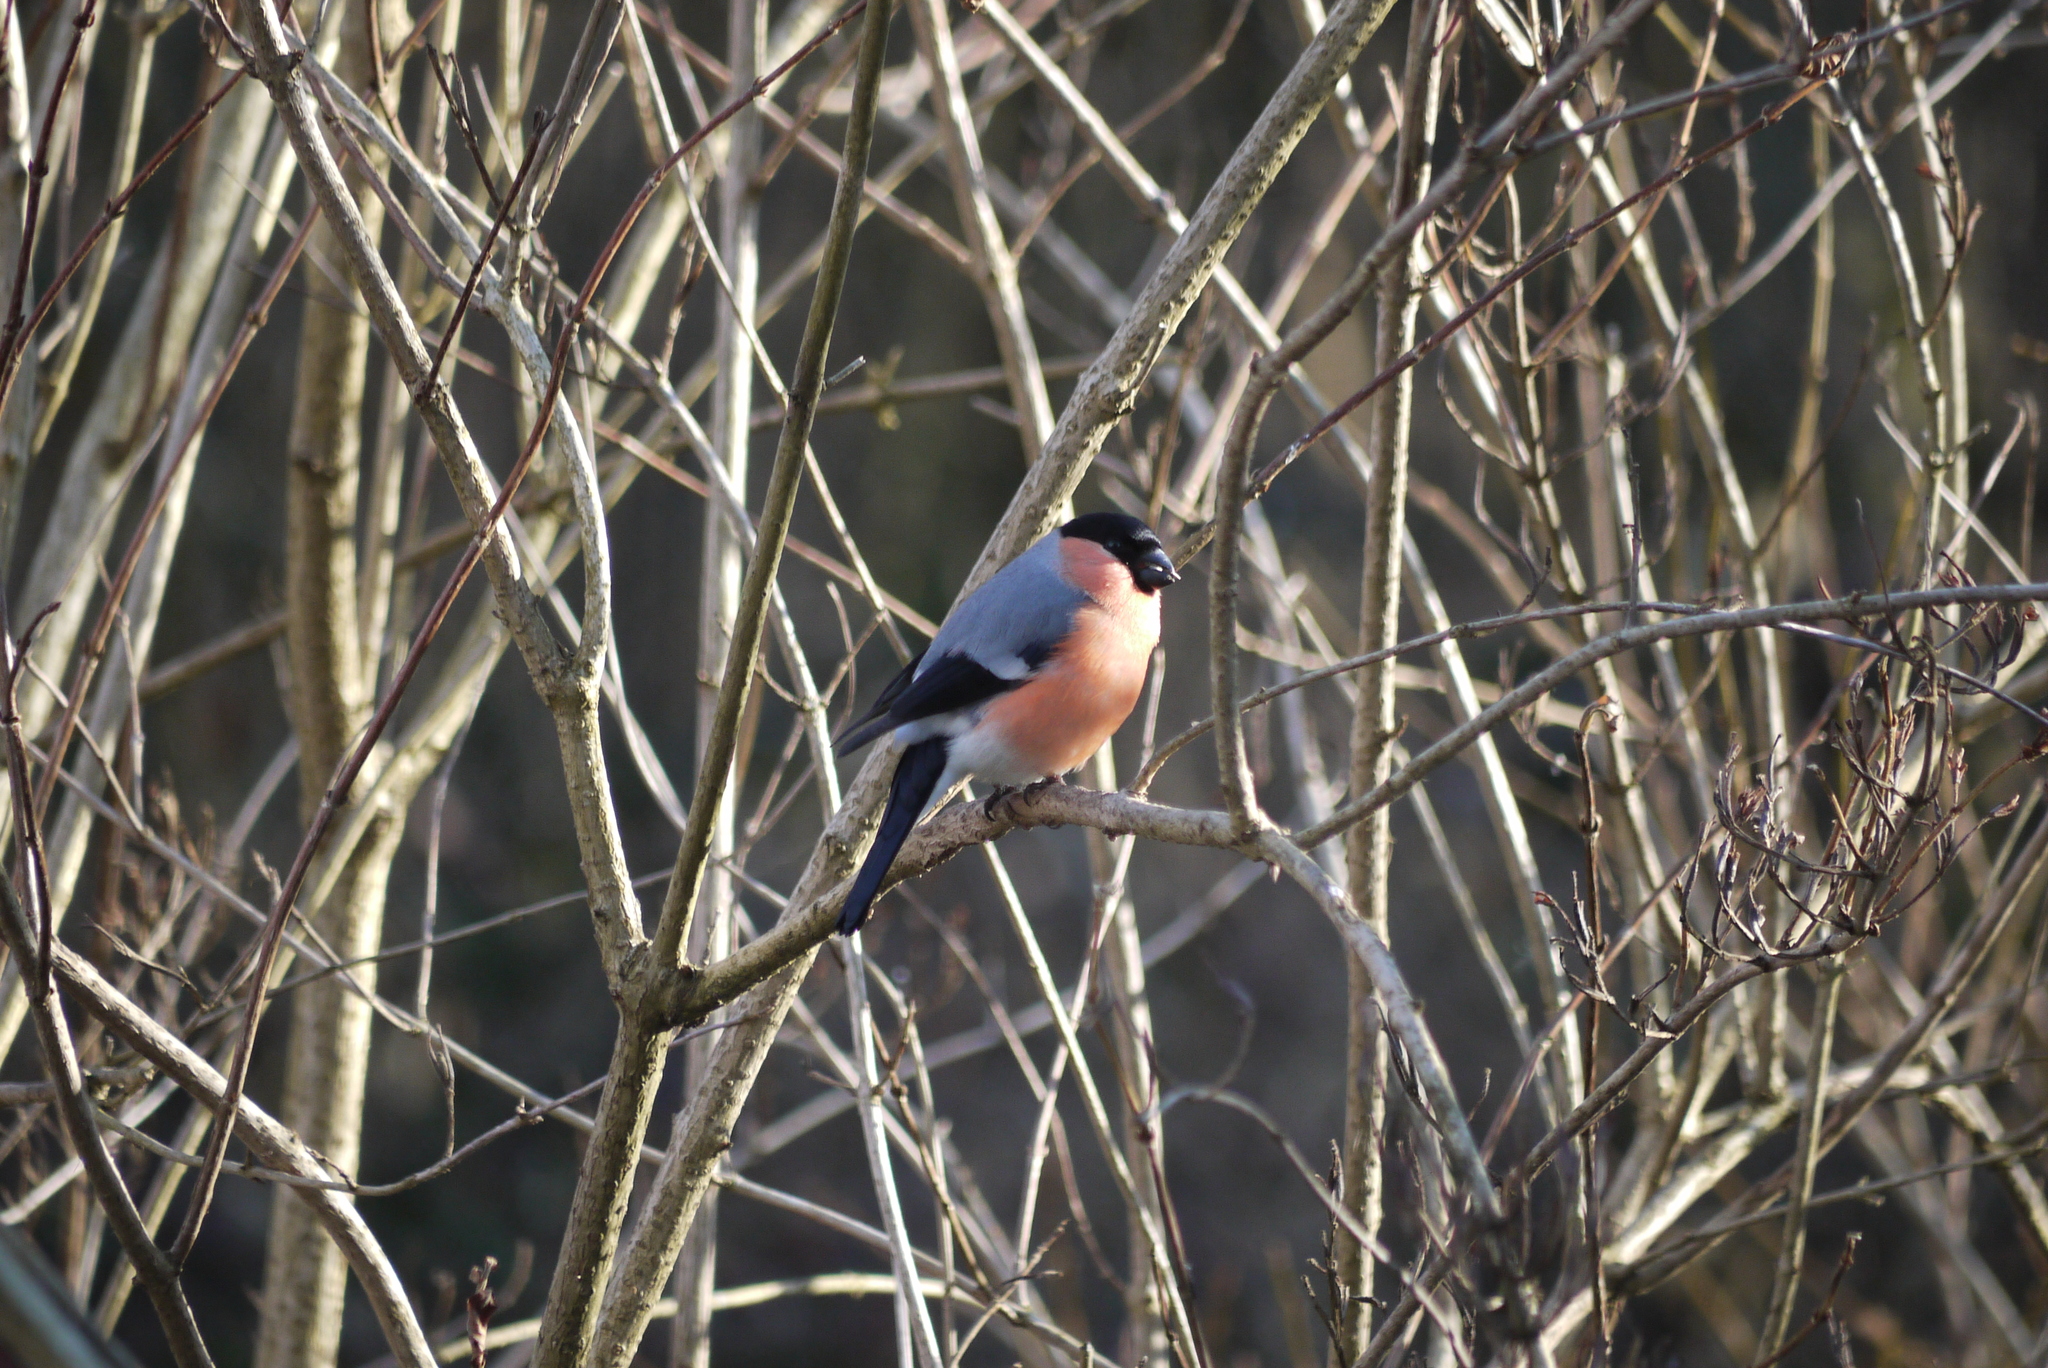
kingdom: Animalia
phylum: Chordata
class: Aves
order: Passeriformes
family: Fringillidae
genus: Pyrrhula
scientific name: Pyrrhula pyrrhula
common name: Eurasian bullfinch
